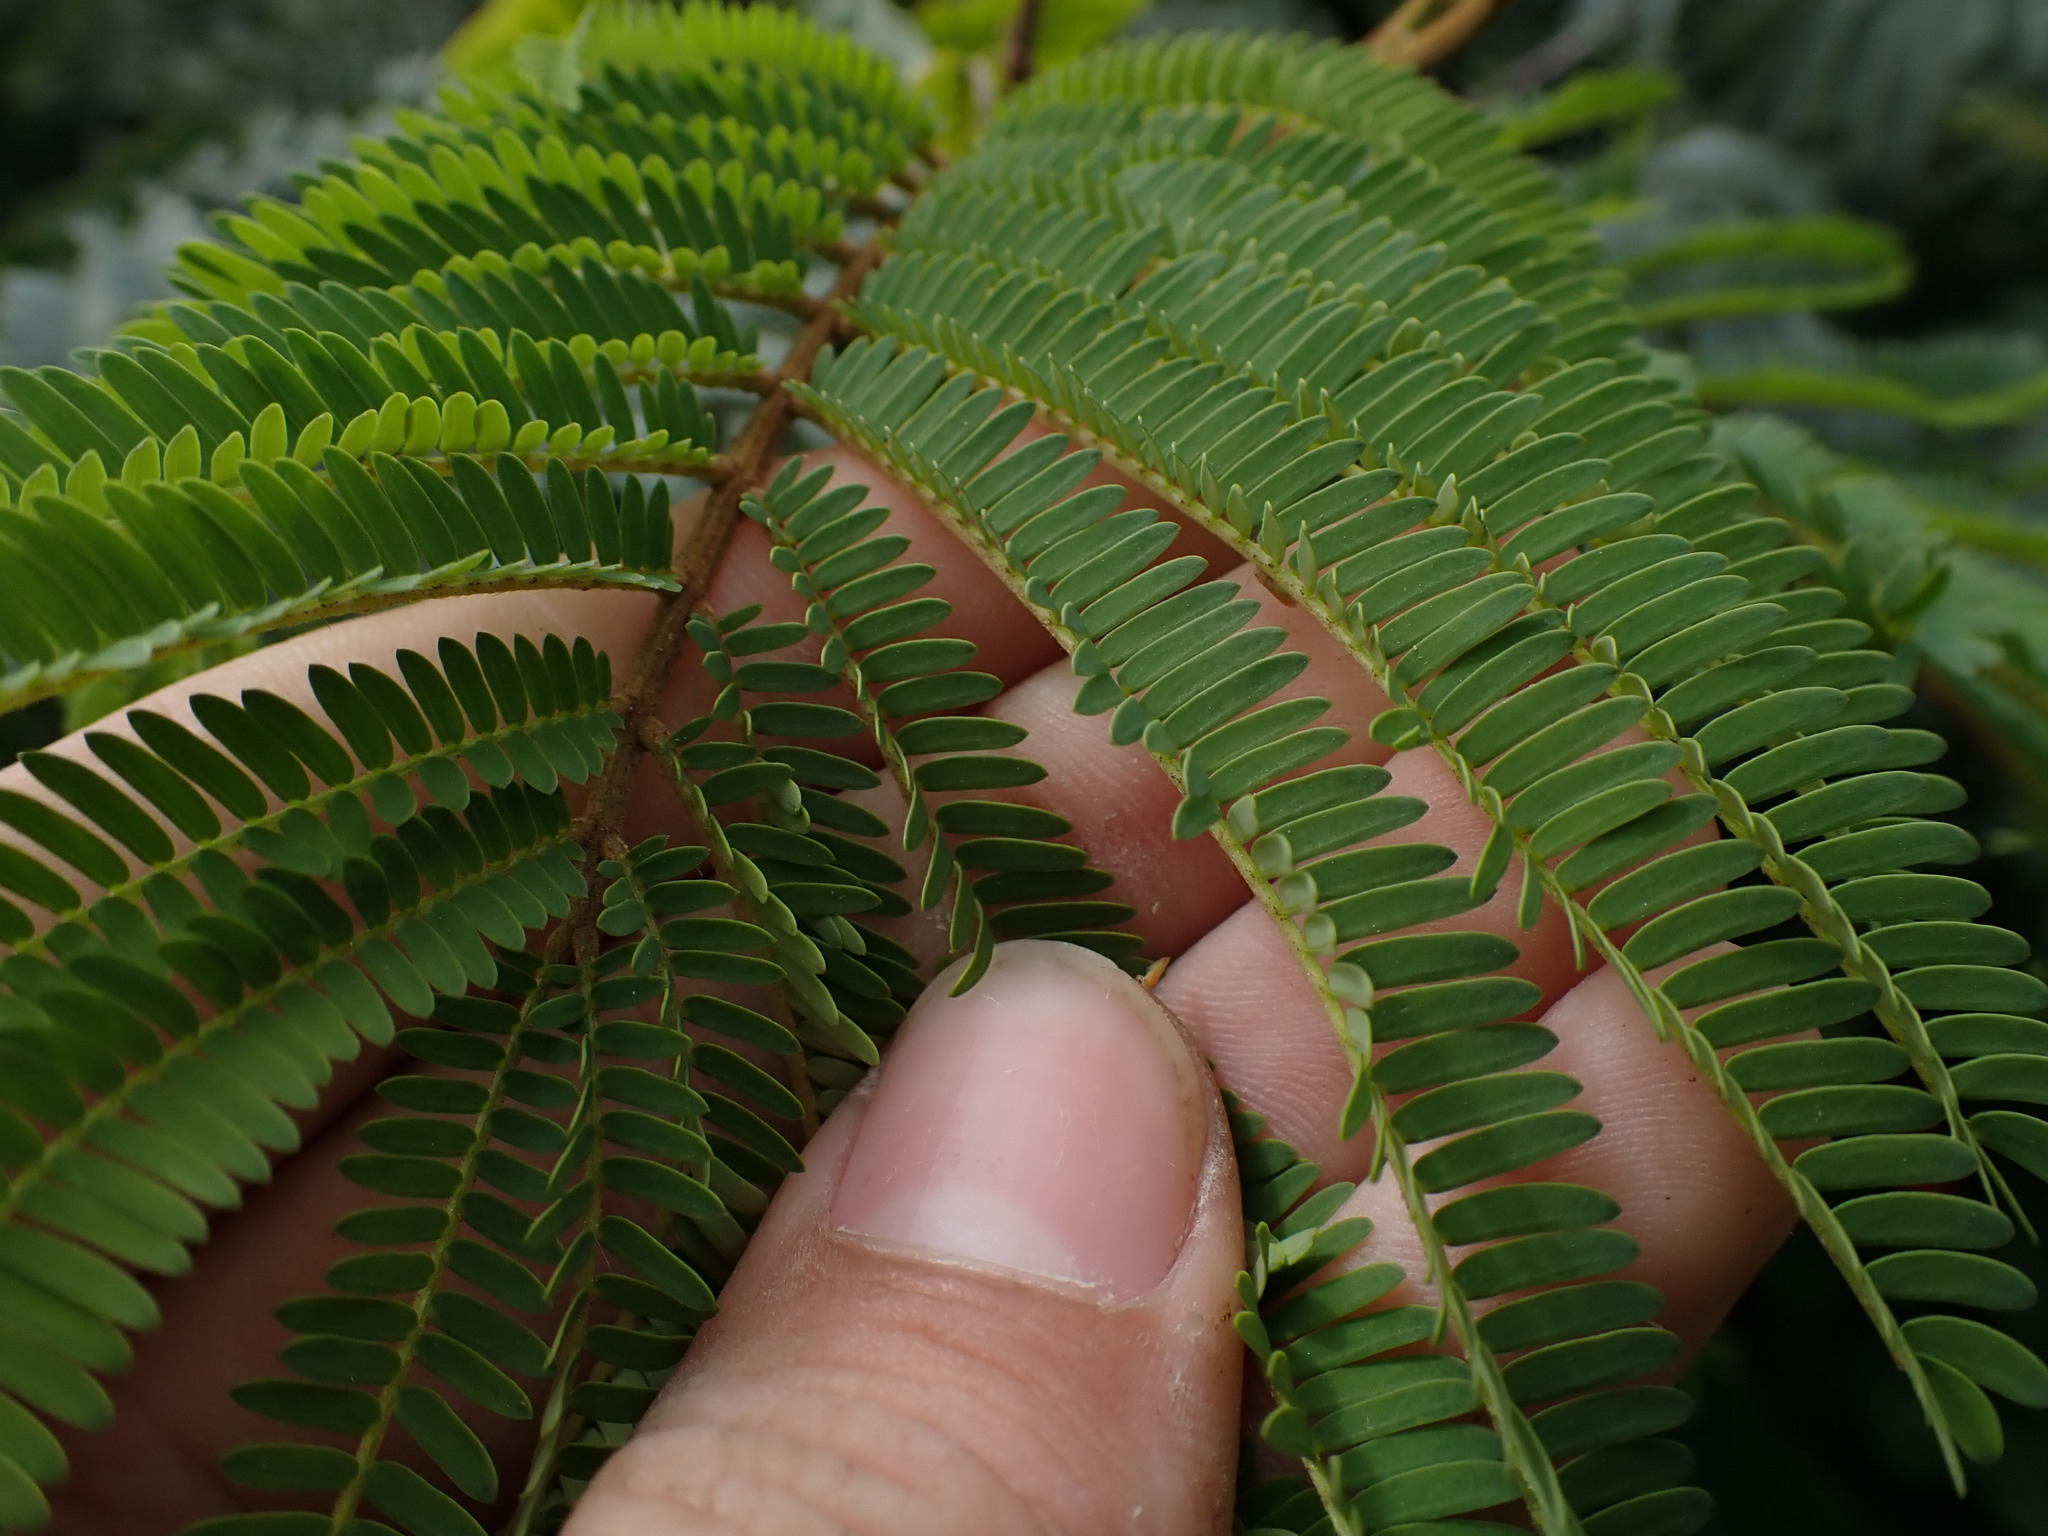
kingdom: Plantae
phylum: Tracheophyta
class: Magnoliopsida
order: Fabales
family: Fabaceae
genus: Paraserianthes
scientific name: Paraserianthes lophantha
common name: Plume albizia
